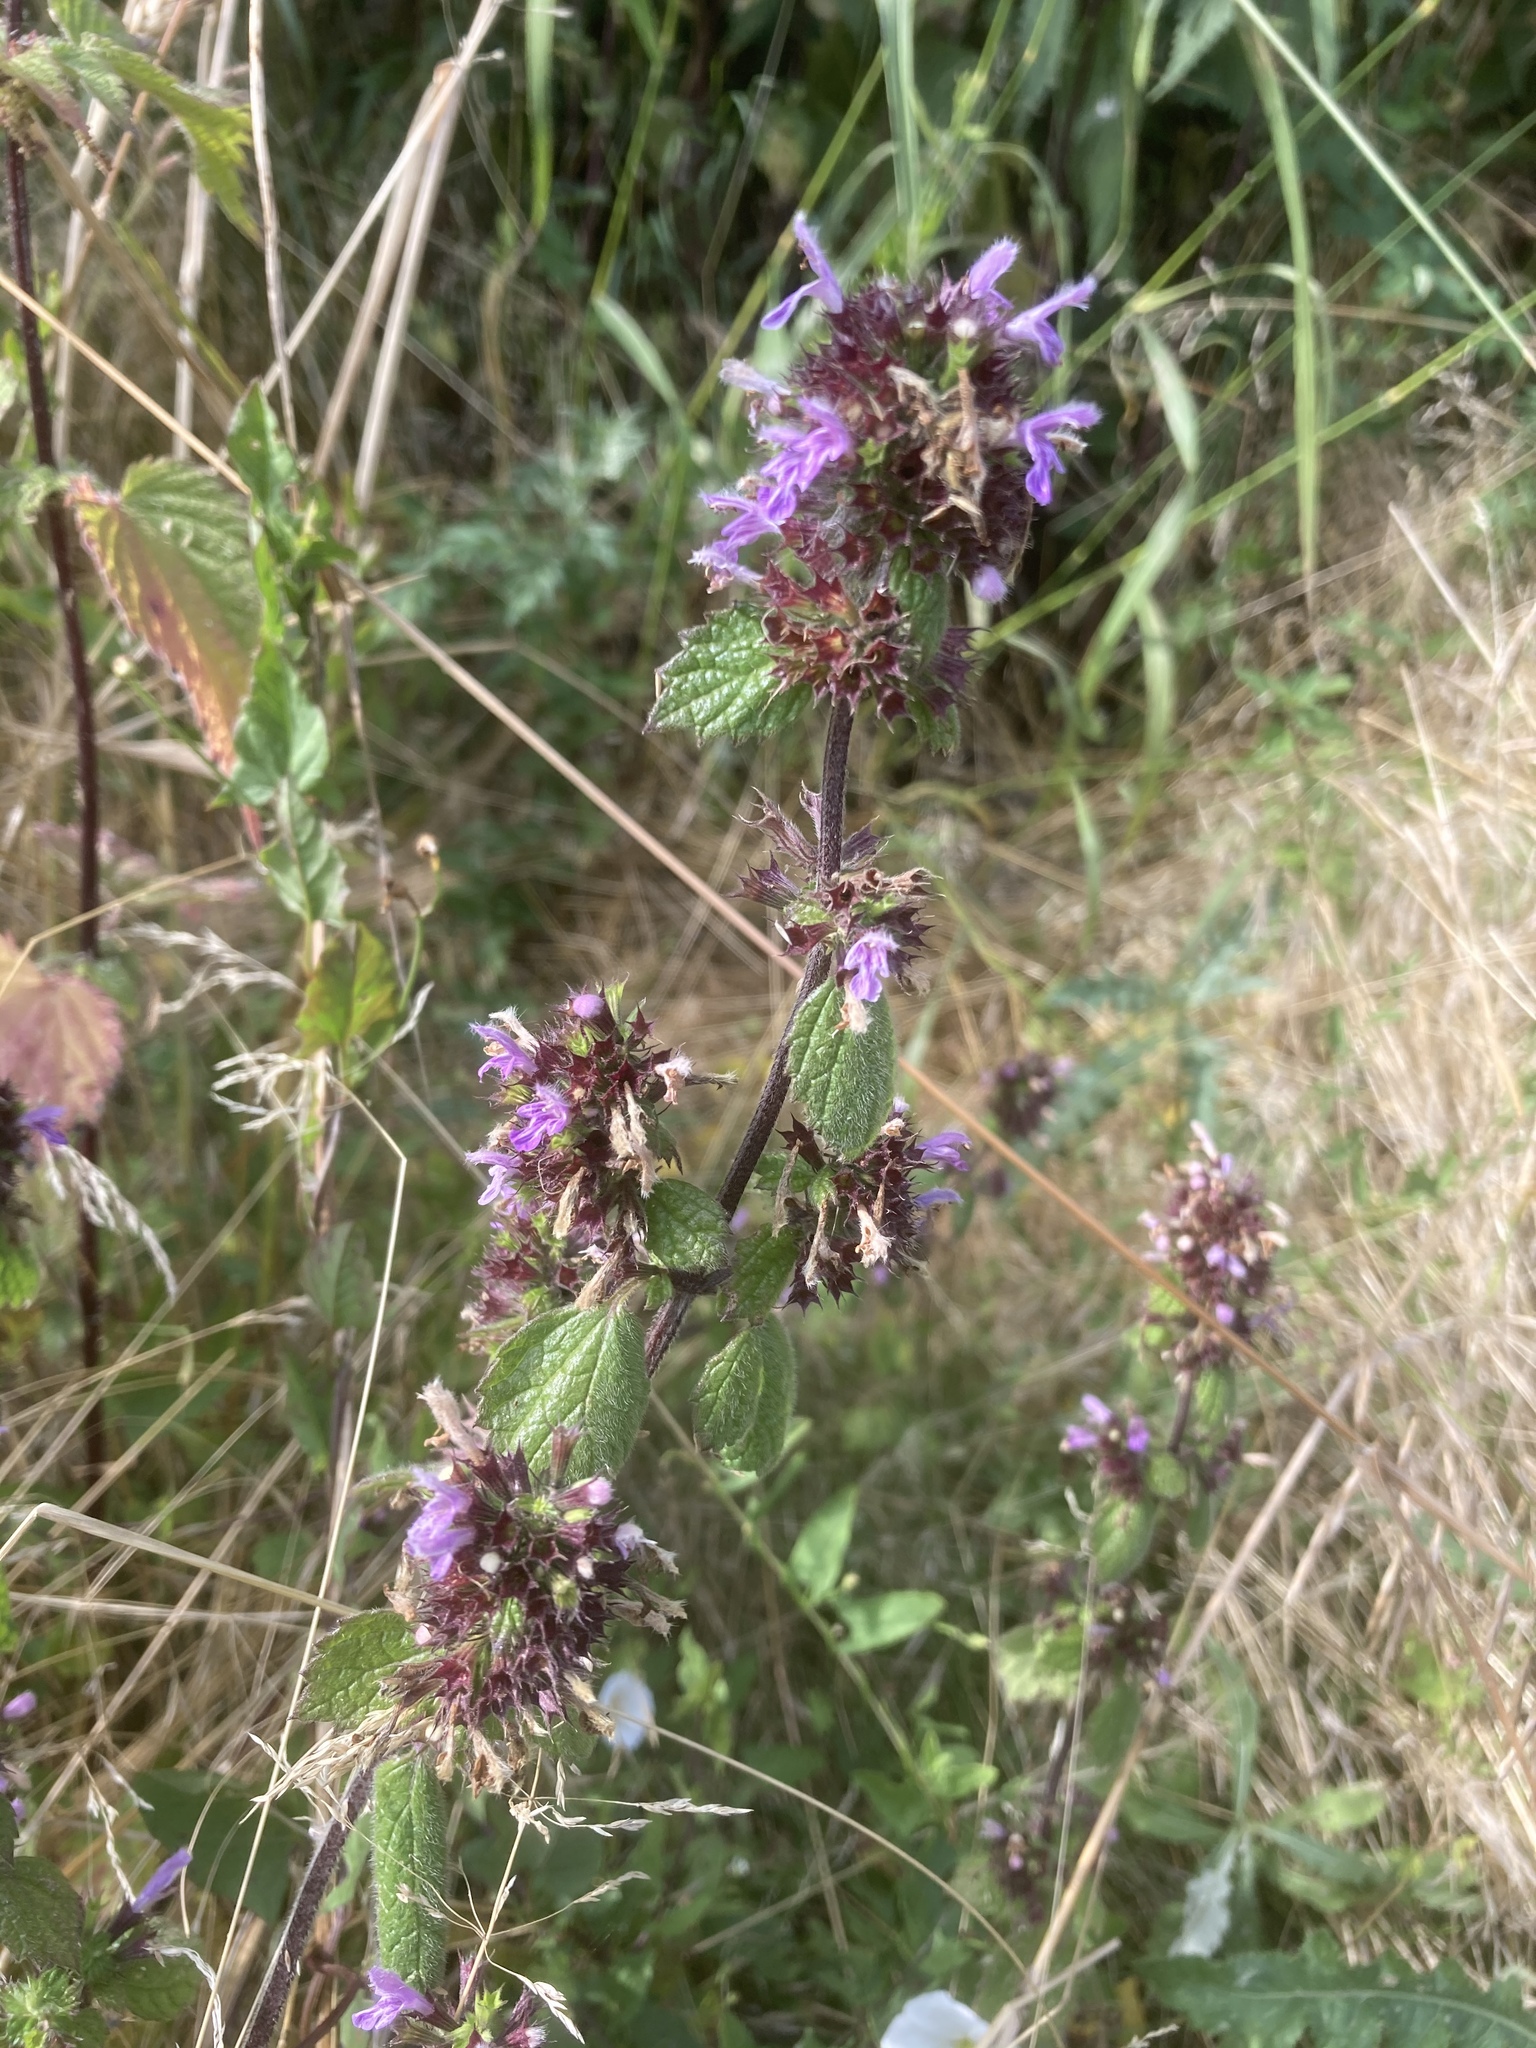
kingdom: Plantae
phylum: Tracheophyta
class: Magnoliopsida
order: Lamiales
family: Lamiaceae
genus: Ballota
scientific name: Ballota nigra
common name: Black horehound
